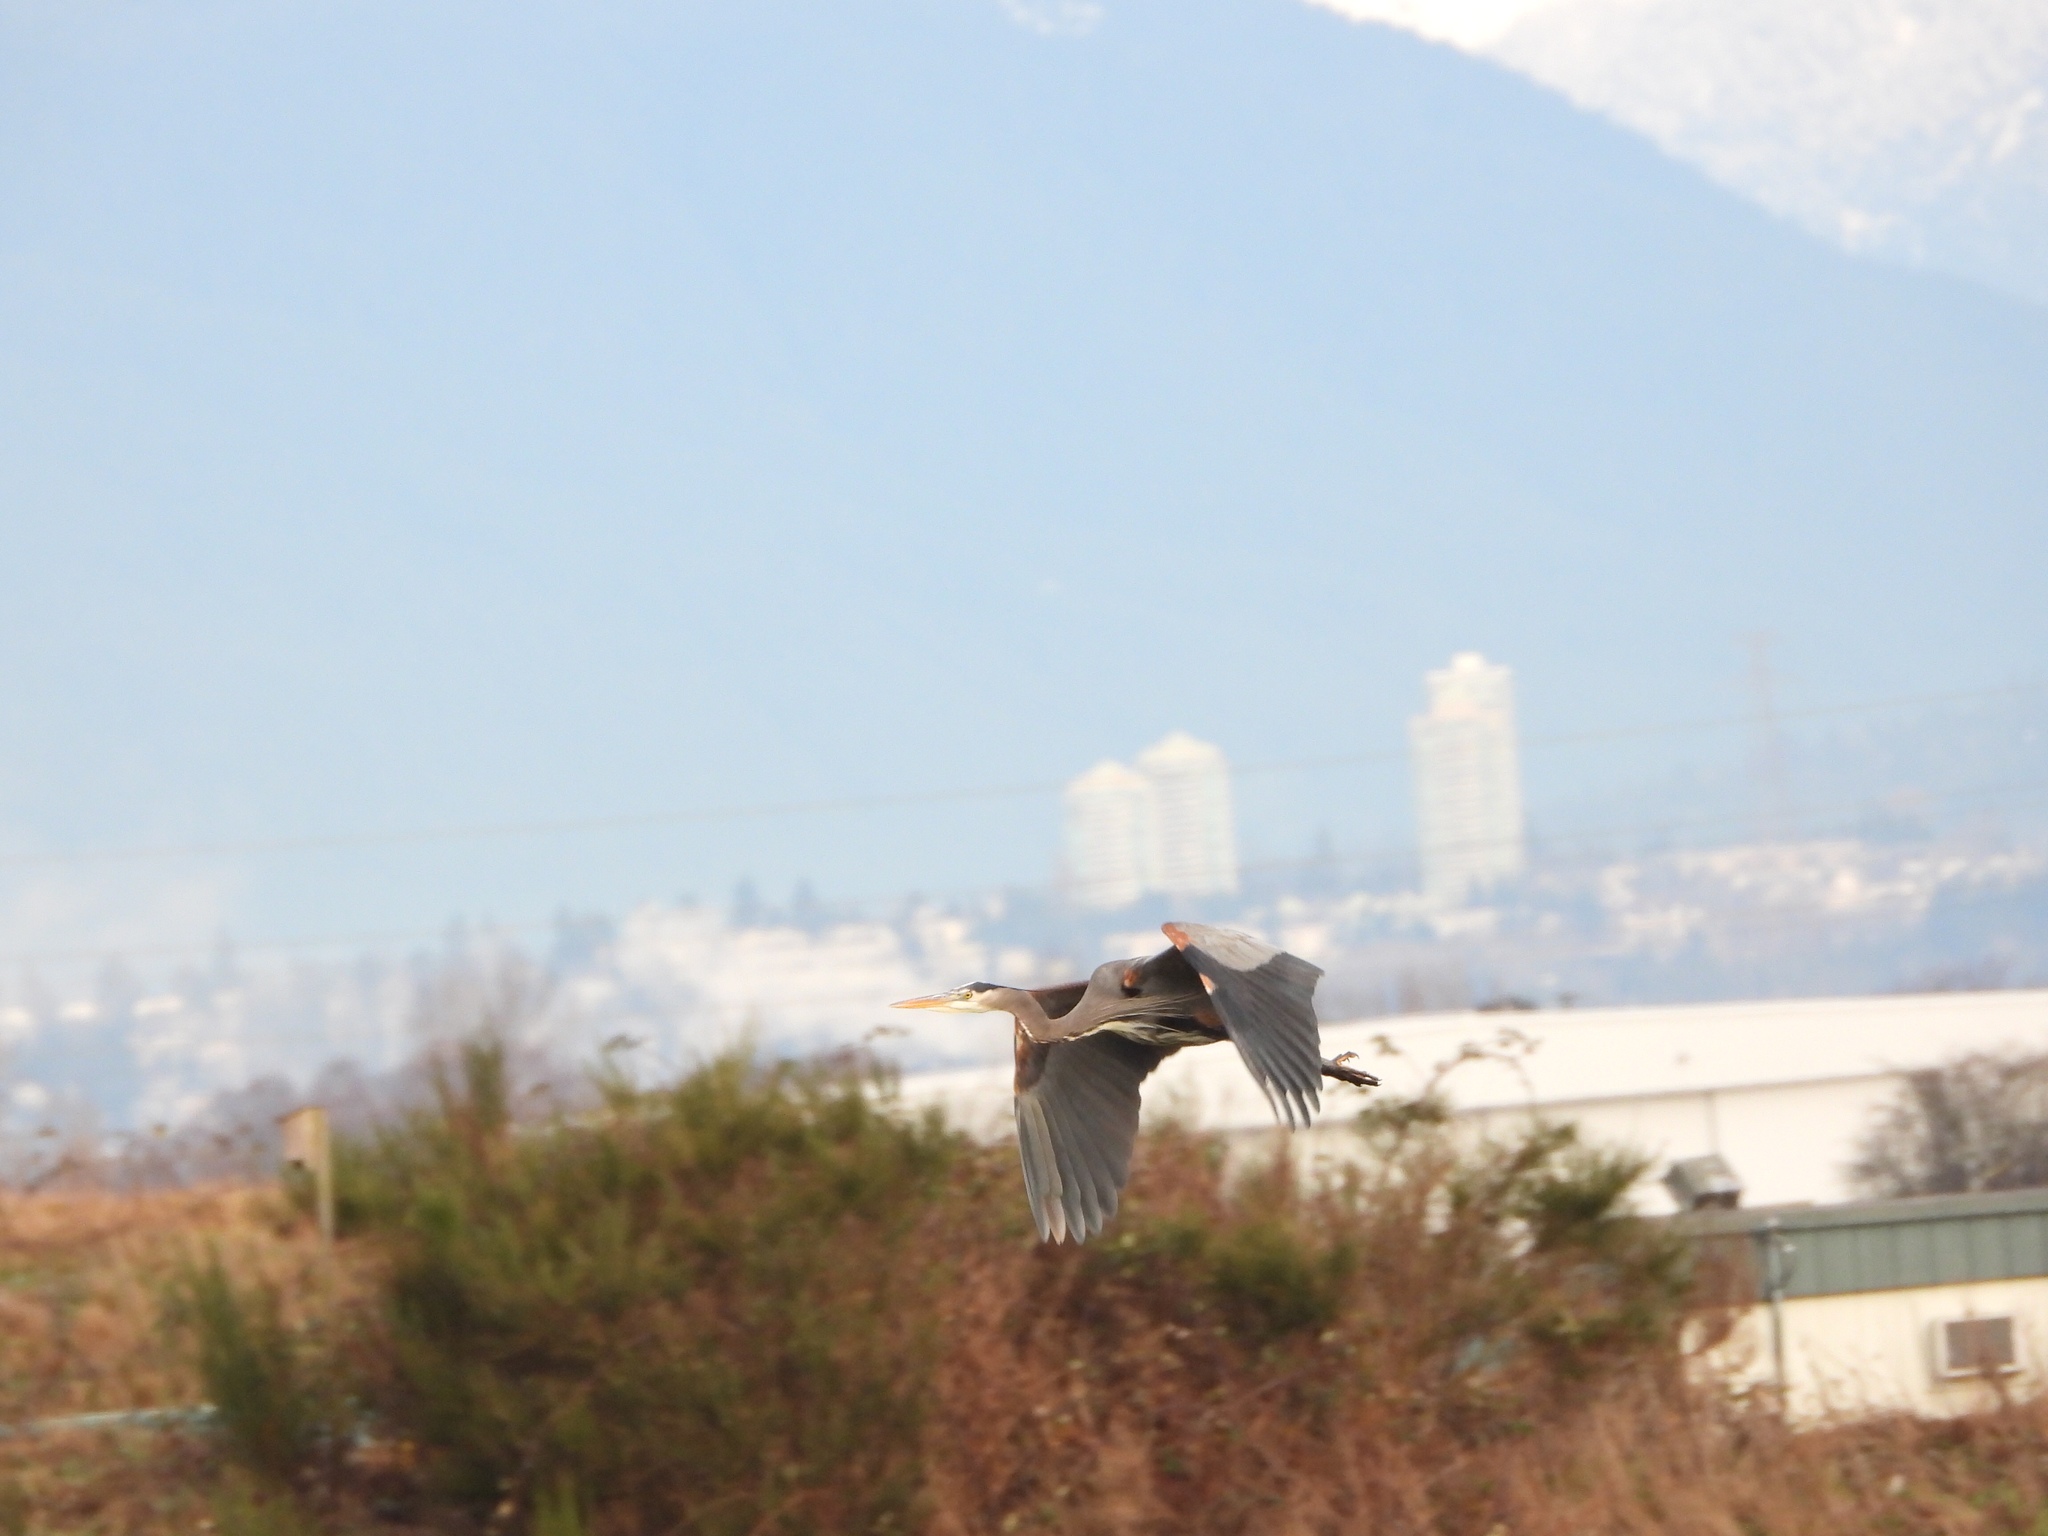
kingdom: Animalia
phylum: Chordata
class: Aves
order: Pelecaniformes
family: Ardeidae
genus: Ardea
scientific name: Ardea herodias
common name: Great blue heron
